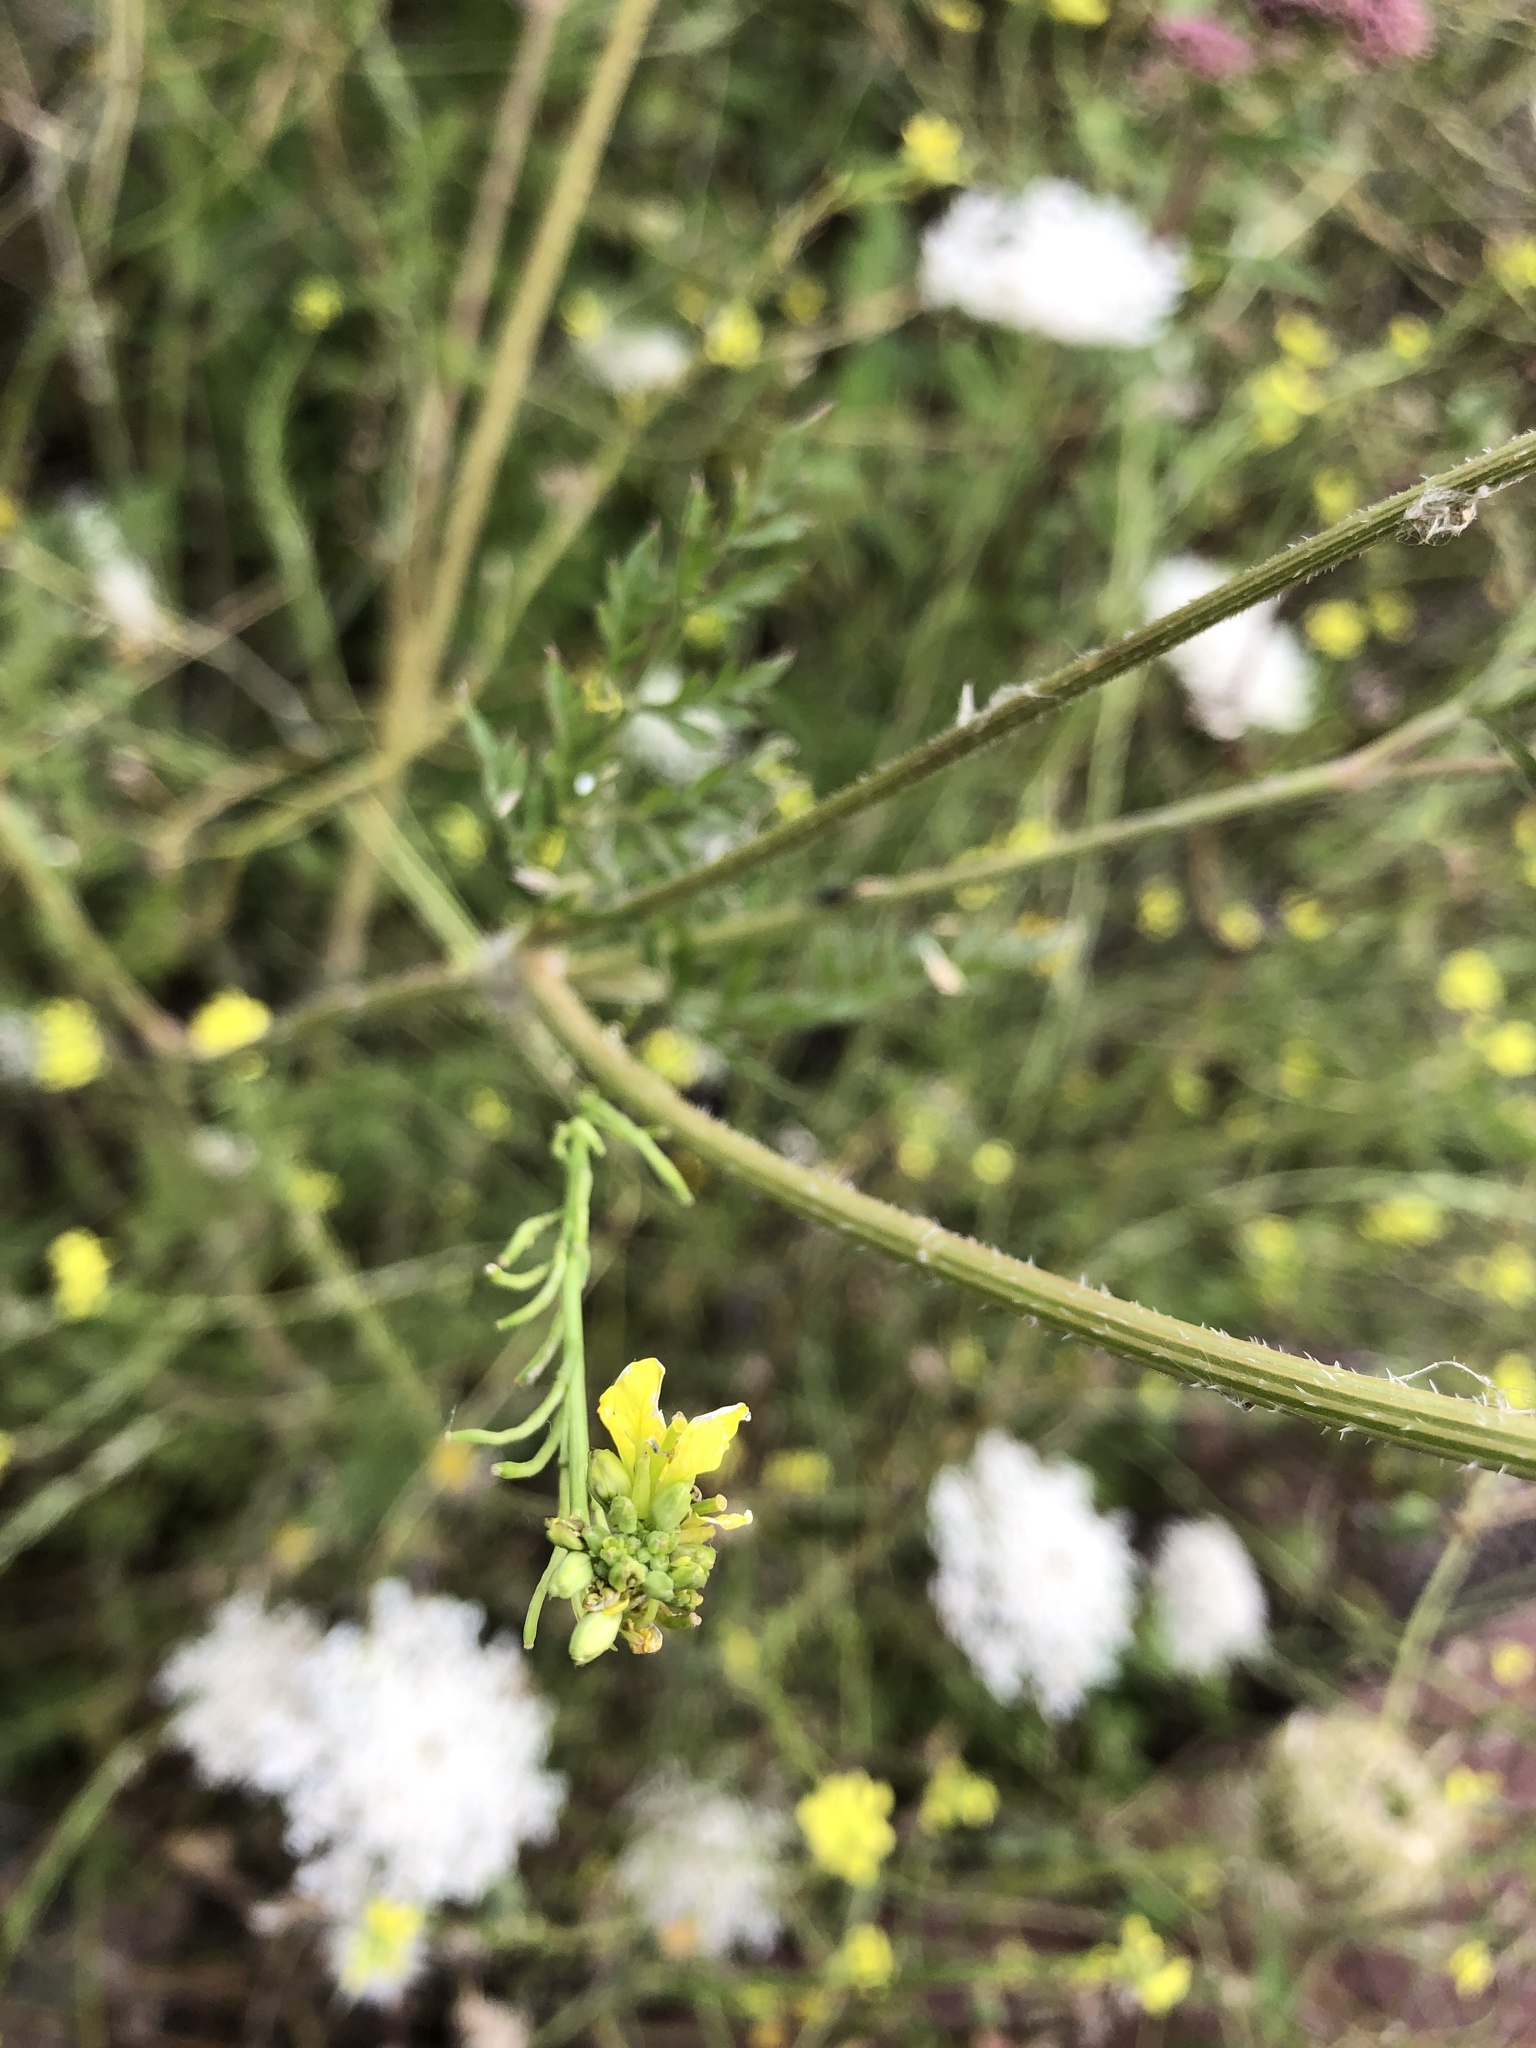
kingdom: Plantae
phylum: Tracheophyta
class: Magnoliopsida
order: Apiales
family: Apiaceae
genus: Daucus
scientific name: Daucus carota
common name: Wild carrot
